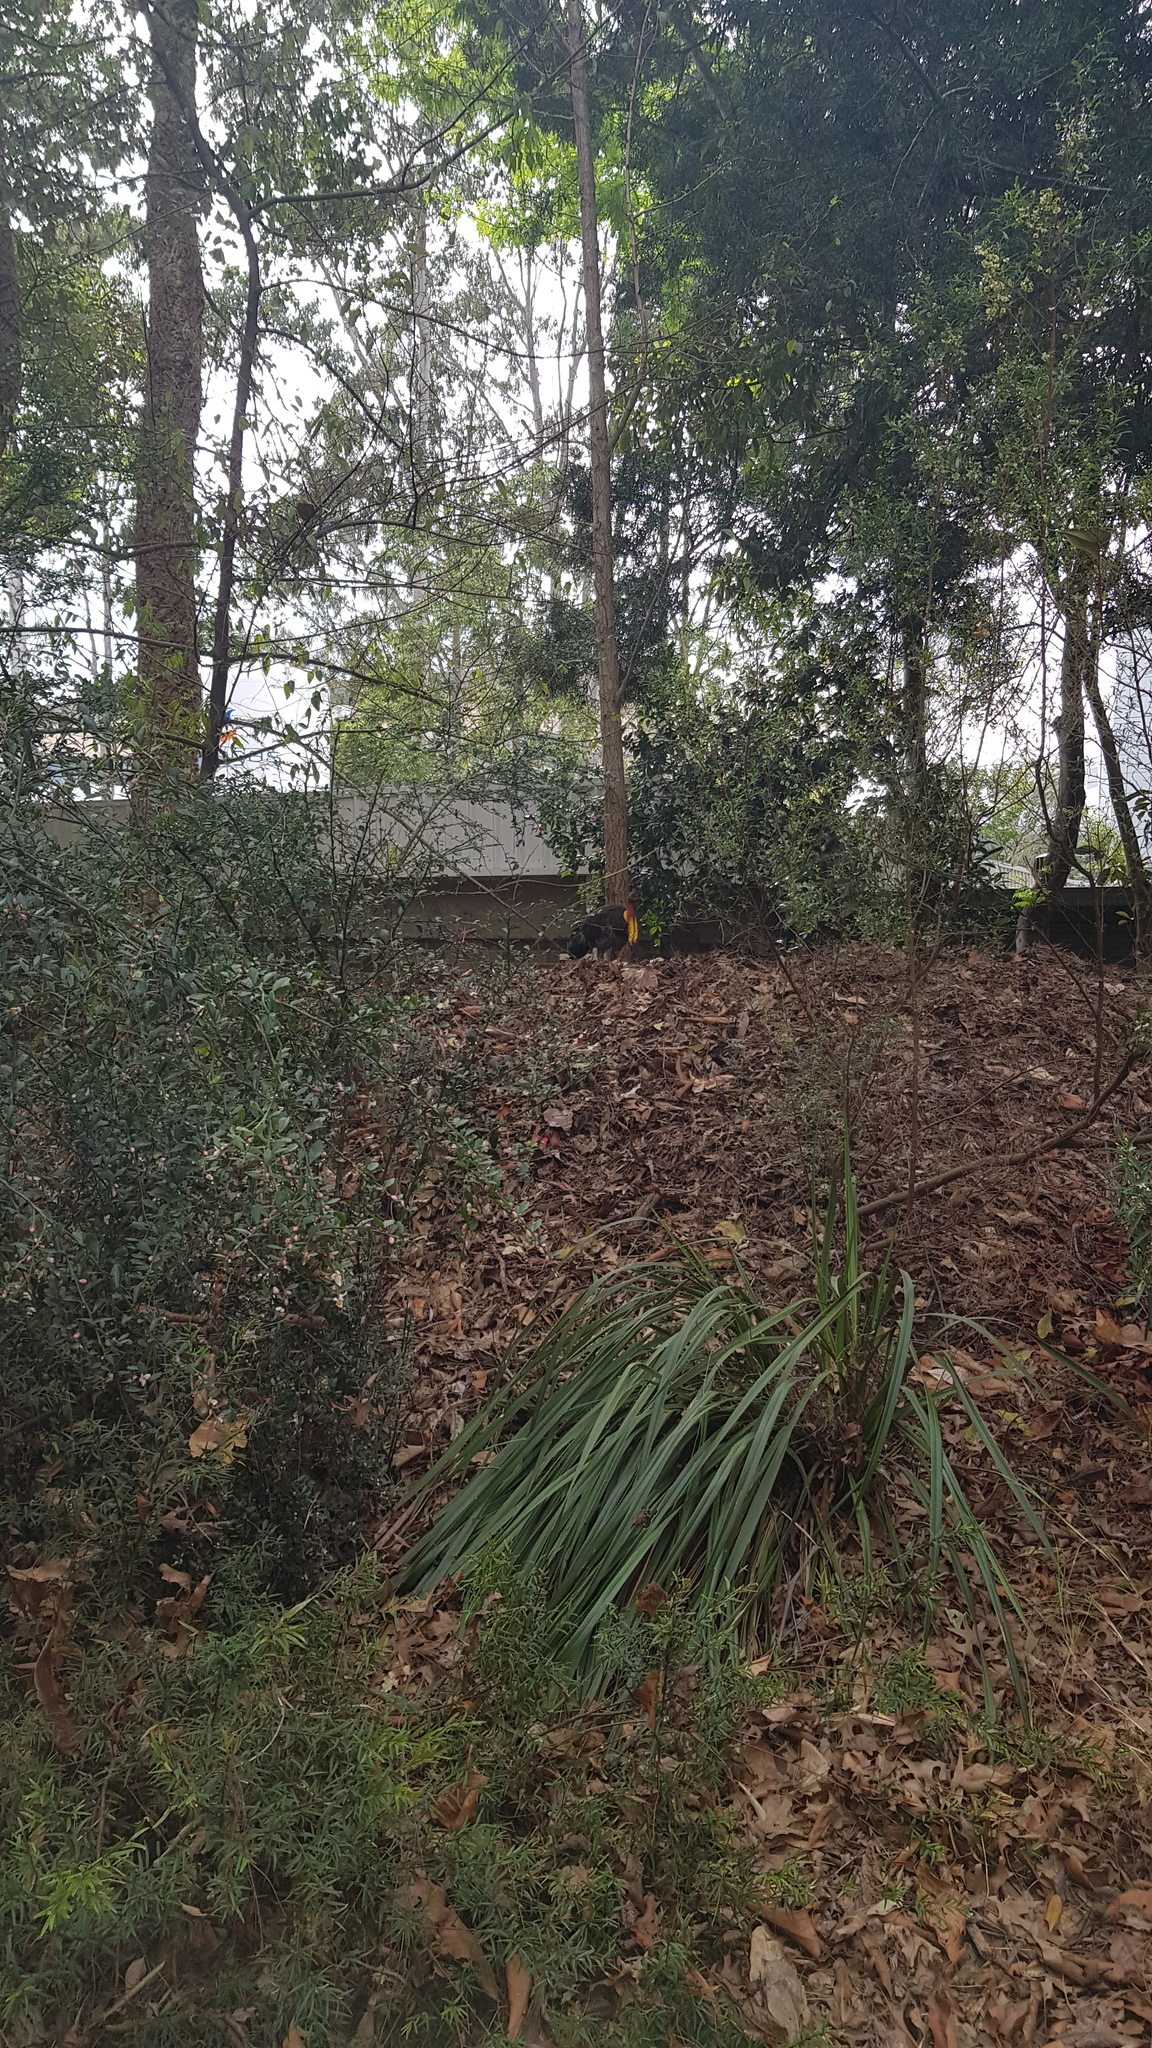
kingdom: Animalia
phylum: Chordata
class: Aves
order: Galliformes
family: Megapodiidae
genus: Alectura
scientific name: Alectura lathami
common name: Australian brushturkey
